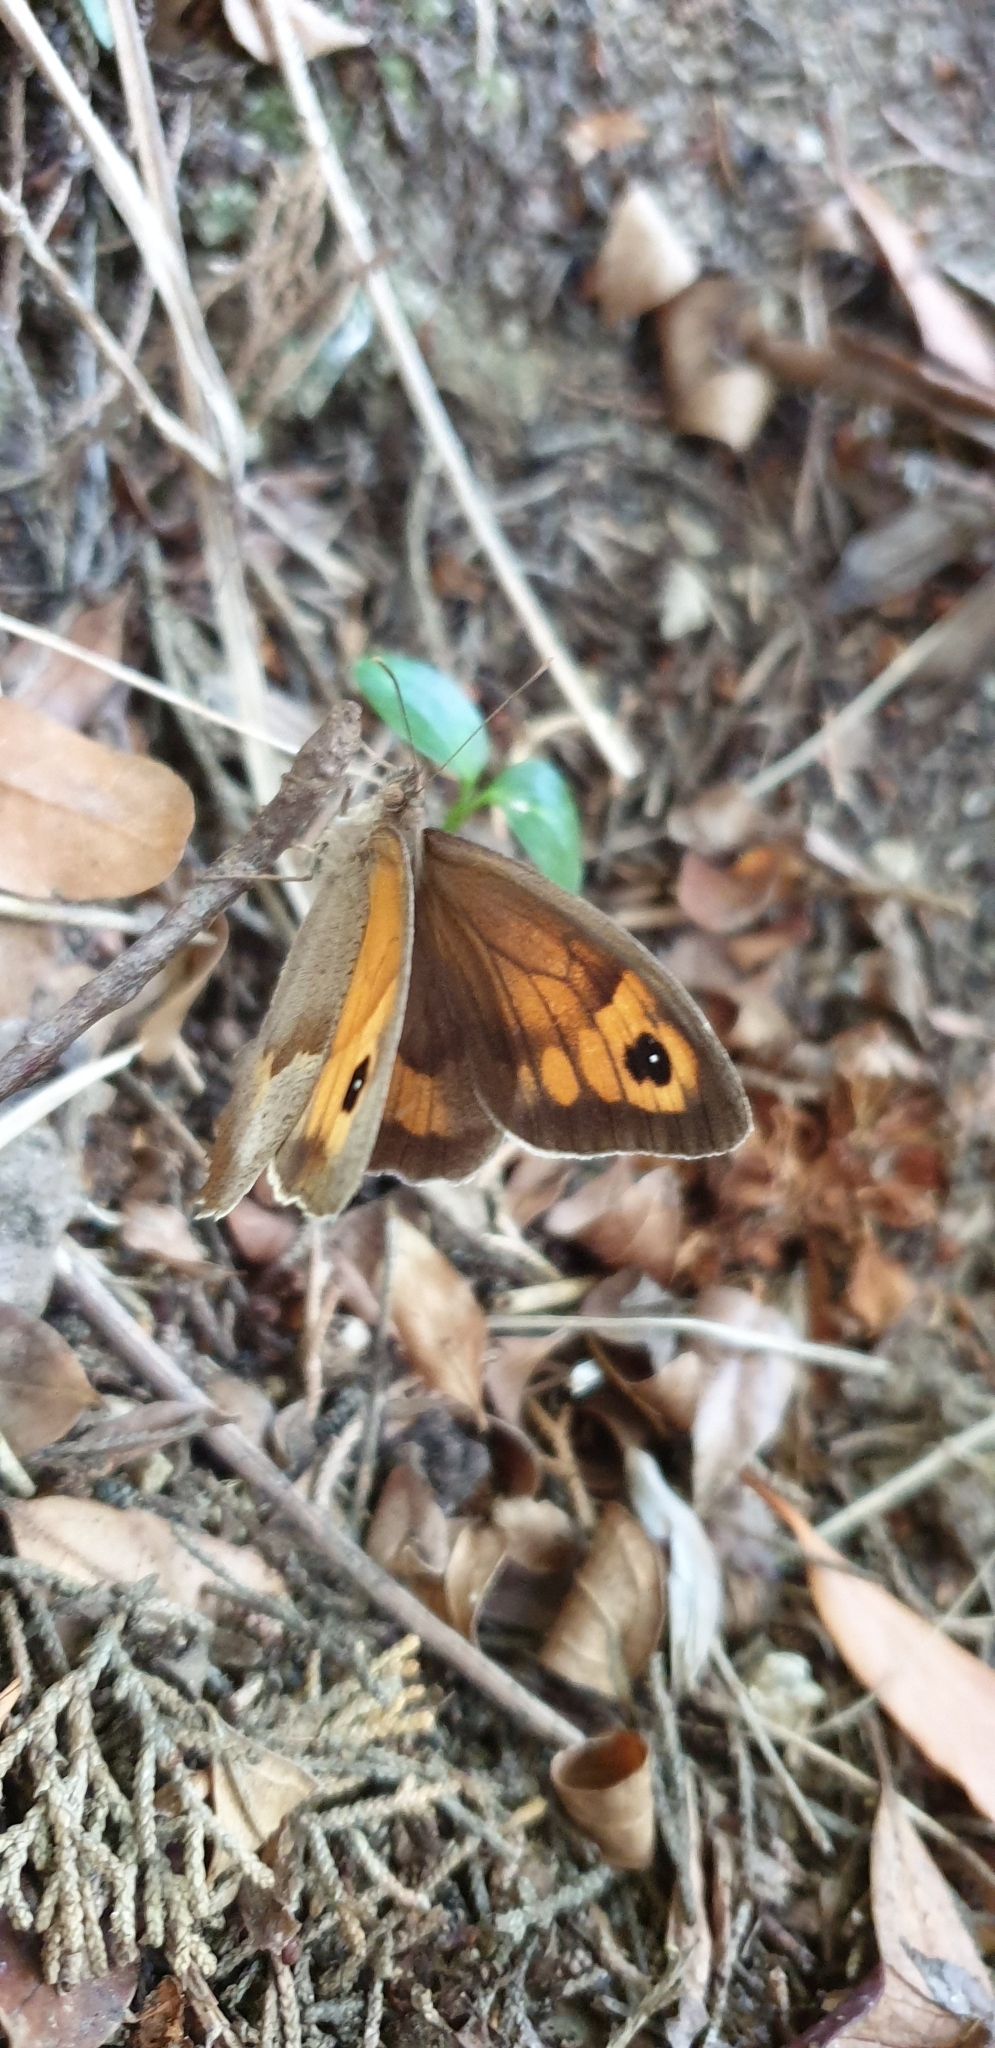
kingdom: Animalia
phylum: Arthropoda
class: Insecta
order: Lepidoptera
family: Nymphalidae
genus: Maniola
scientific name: Maniola jurtina
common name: Meadow brown
